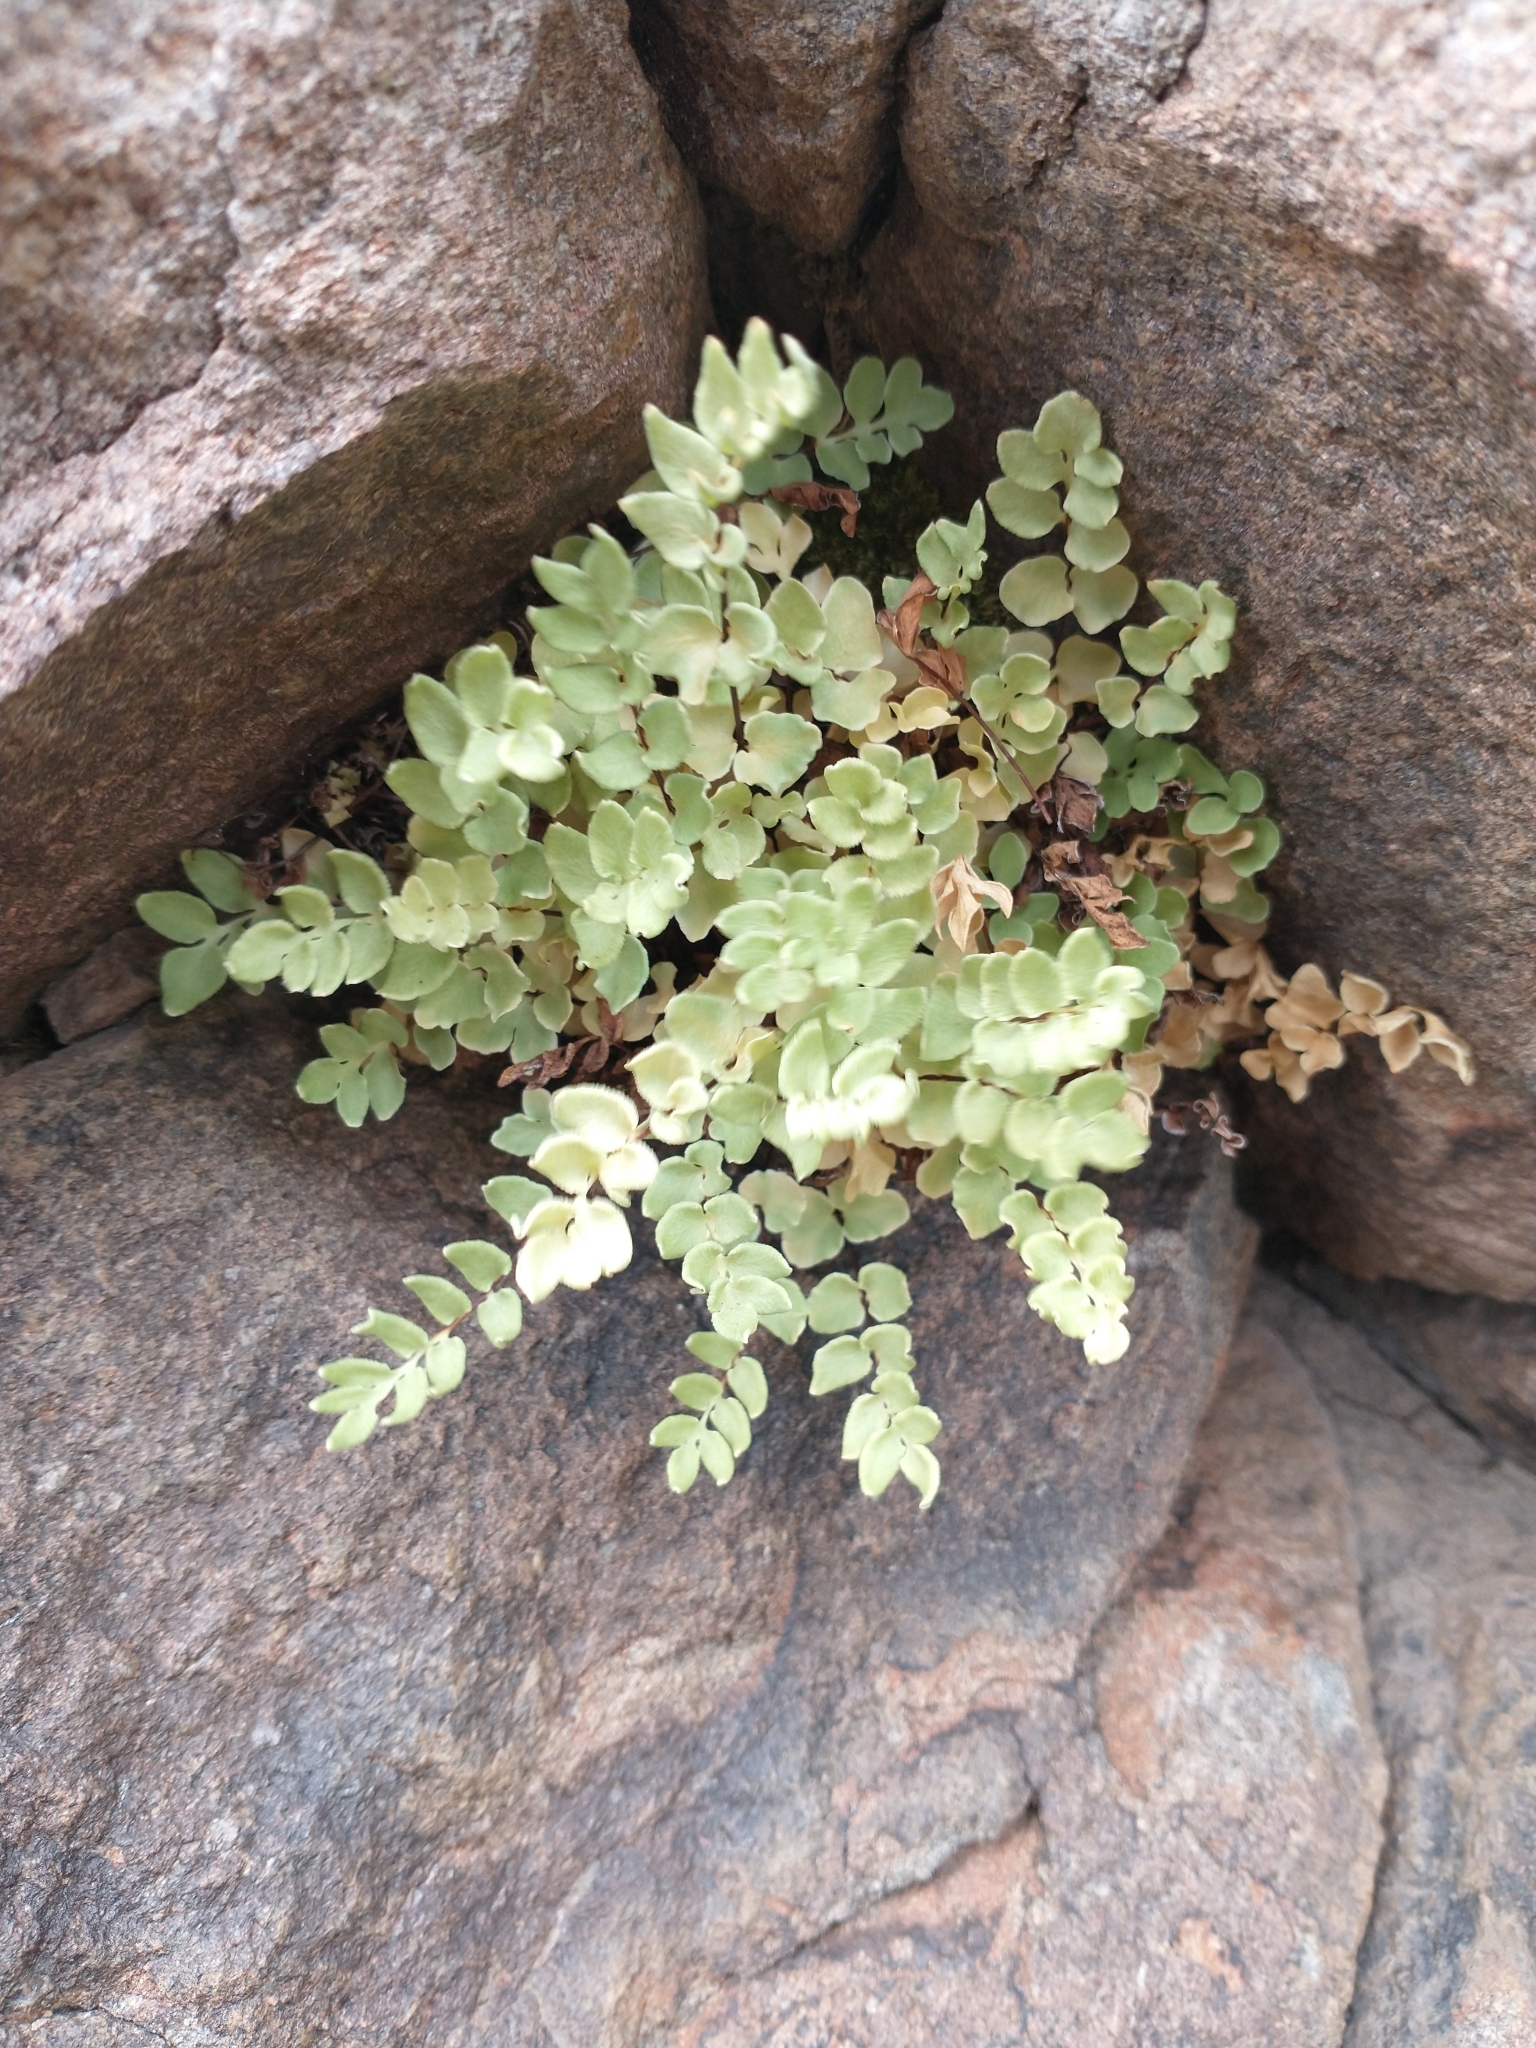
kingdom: Plantae
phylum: Tracheophyta
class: Polypodiopsida
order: Polypodiales
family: Pteridaceae
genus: Pellaea
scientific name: Pellaea breweri
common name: Brewer's cliffbrake
